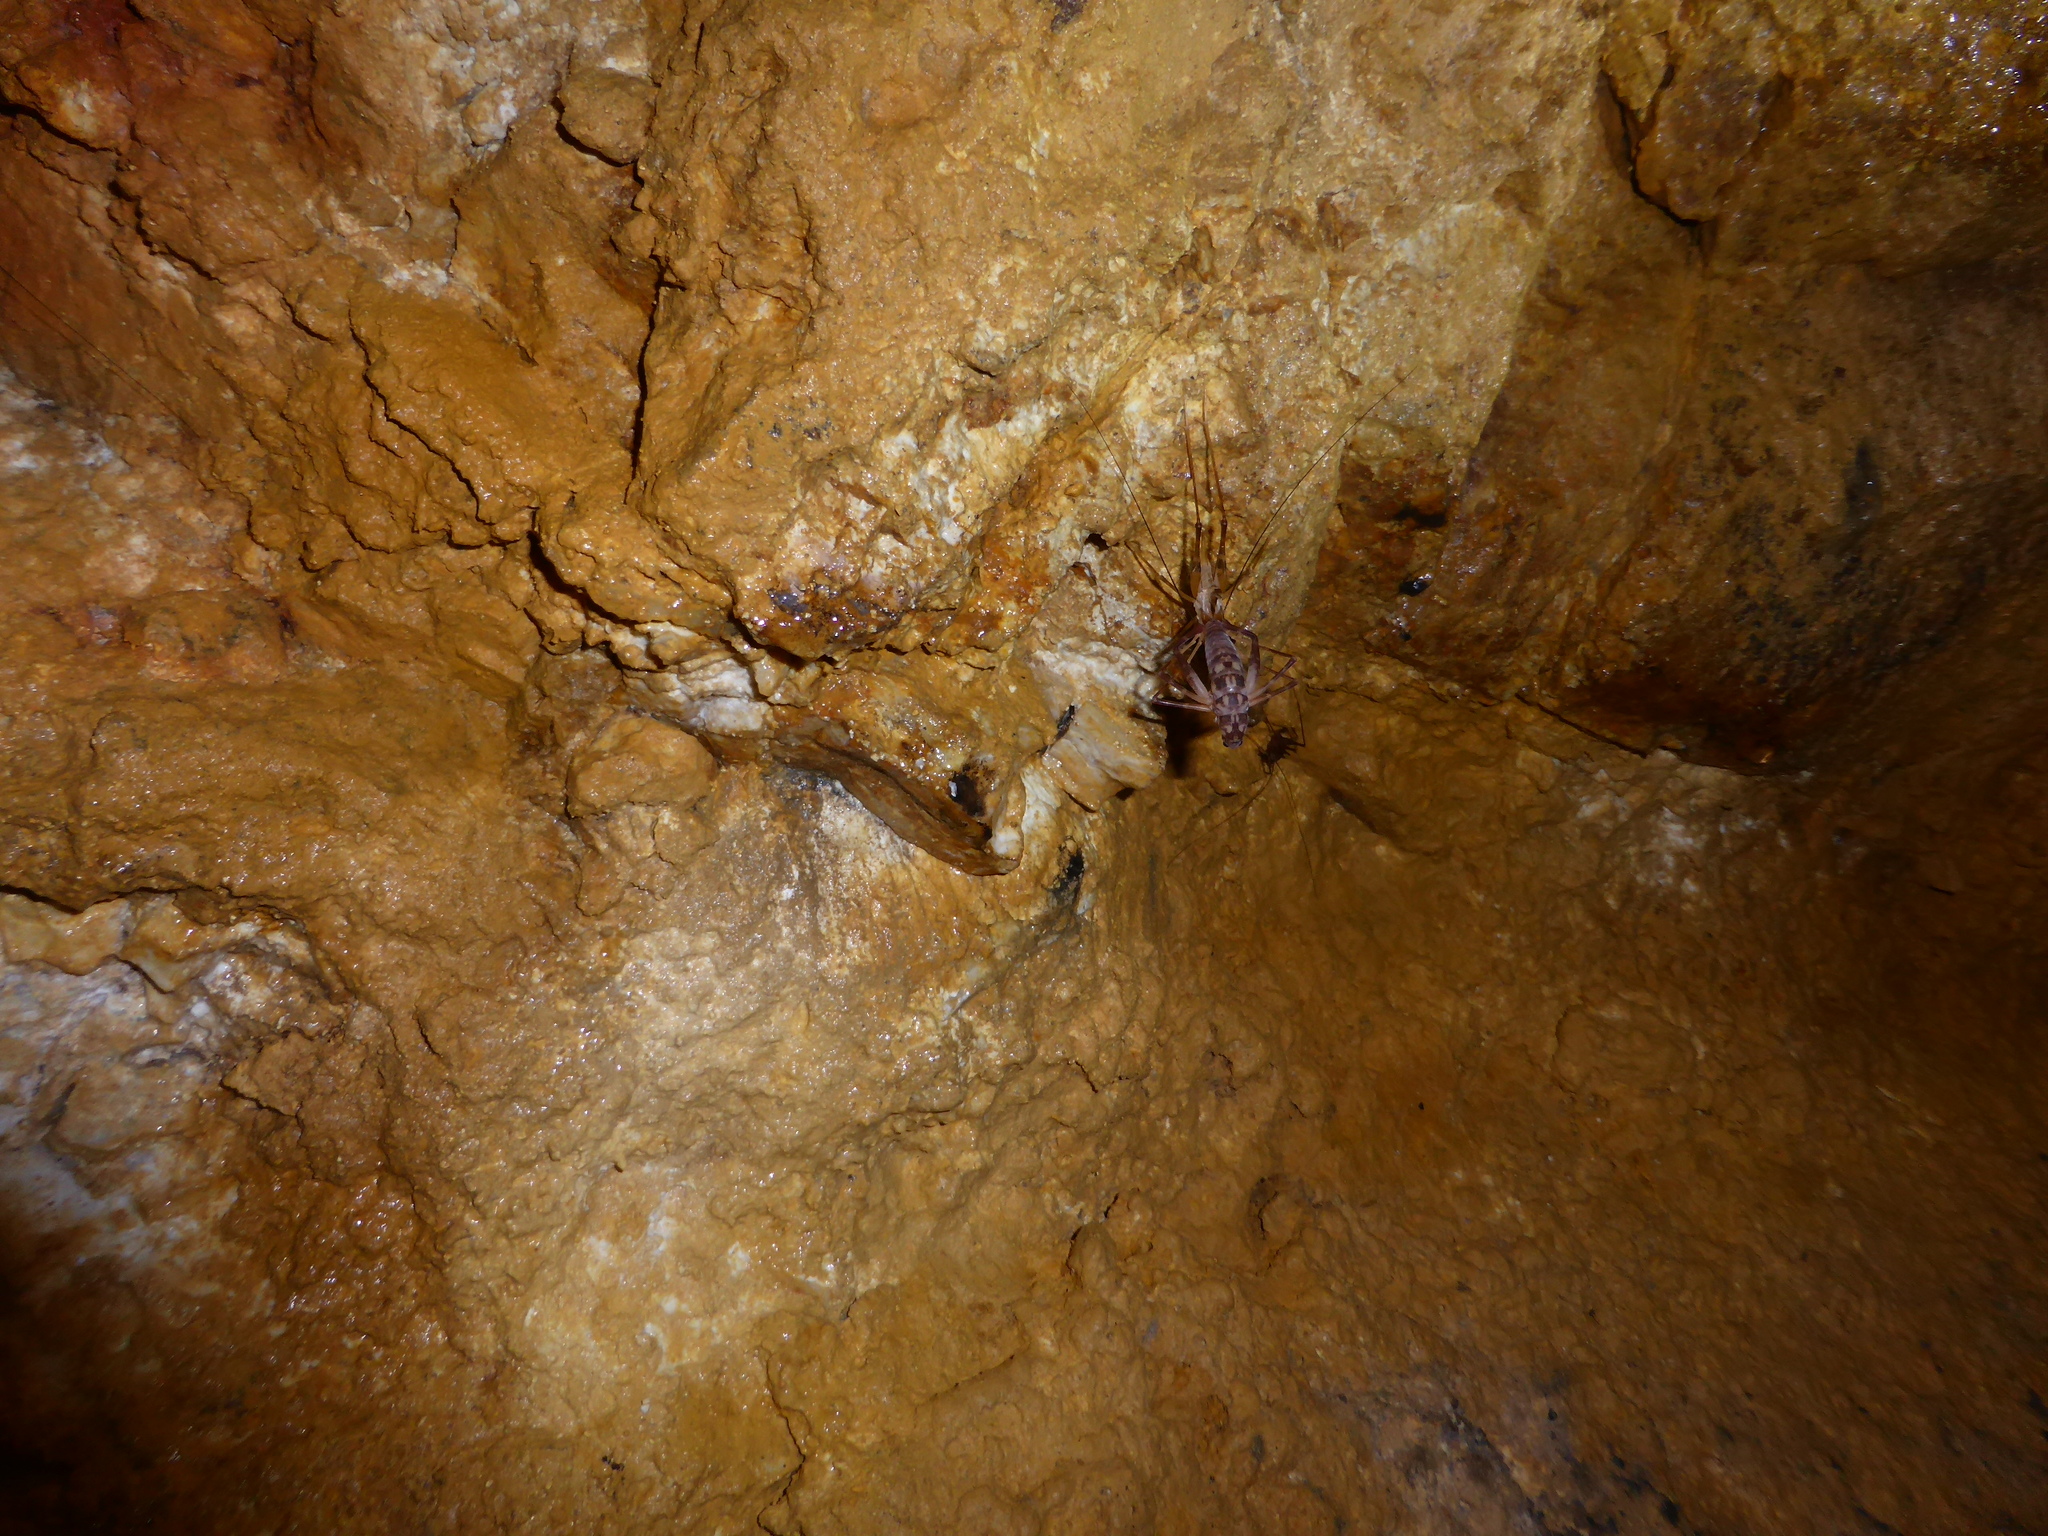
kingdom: Animalia
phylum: Arthropoda
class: Insecta
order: Orthoptera
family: Rhaphidophoridae
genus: Pachyrhamma
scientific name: Pachyrhamma cavernae
